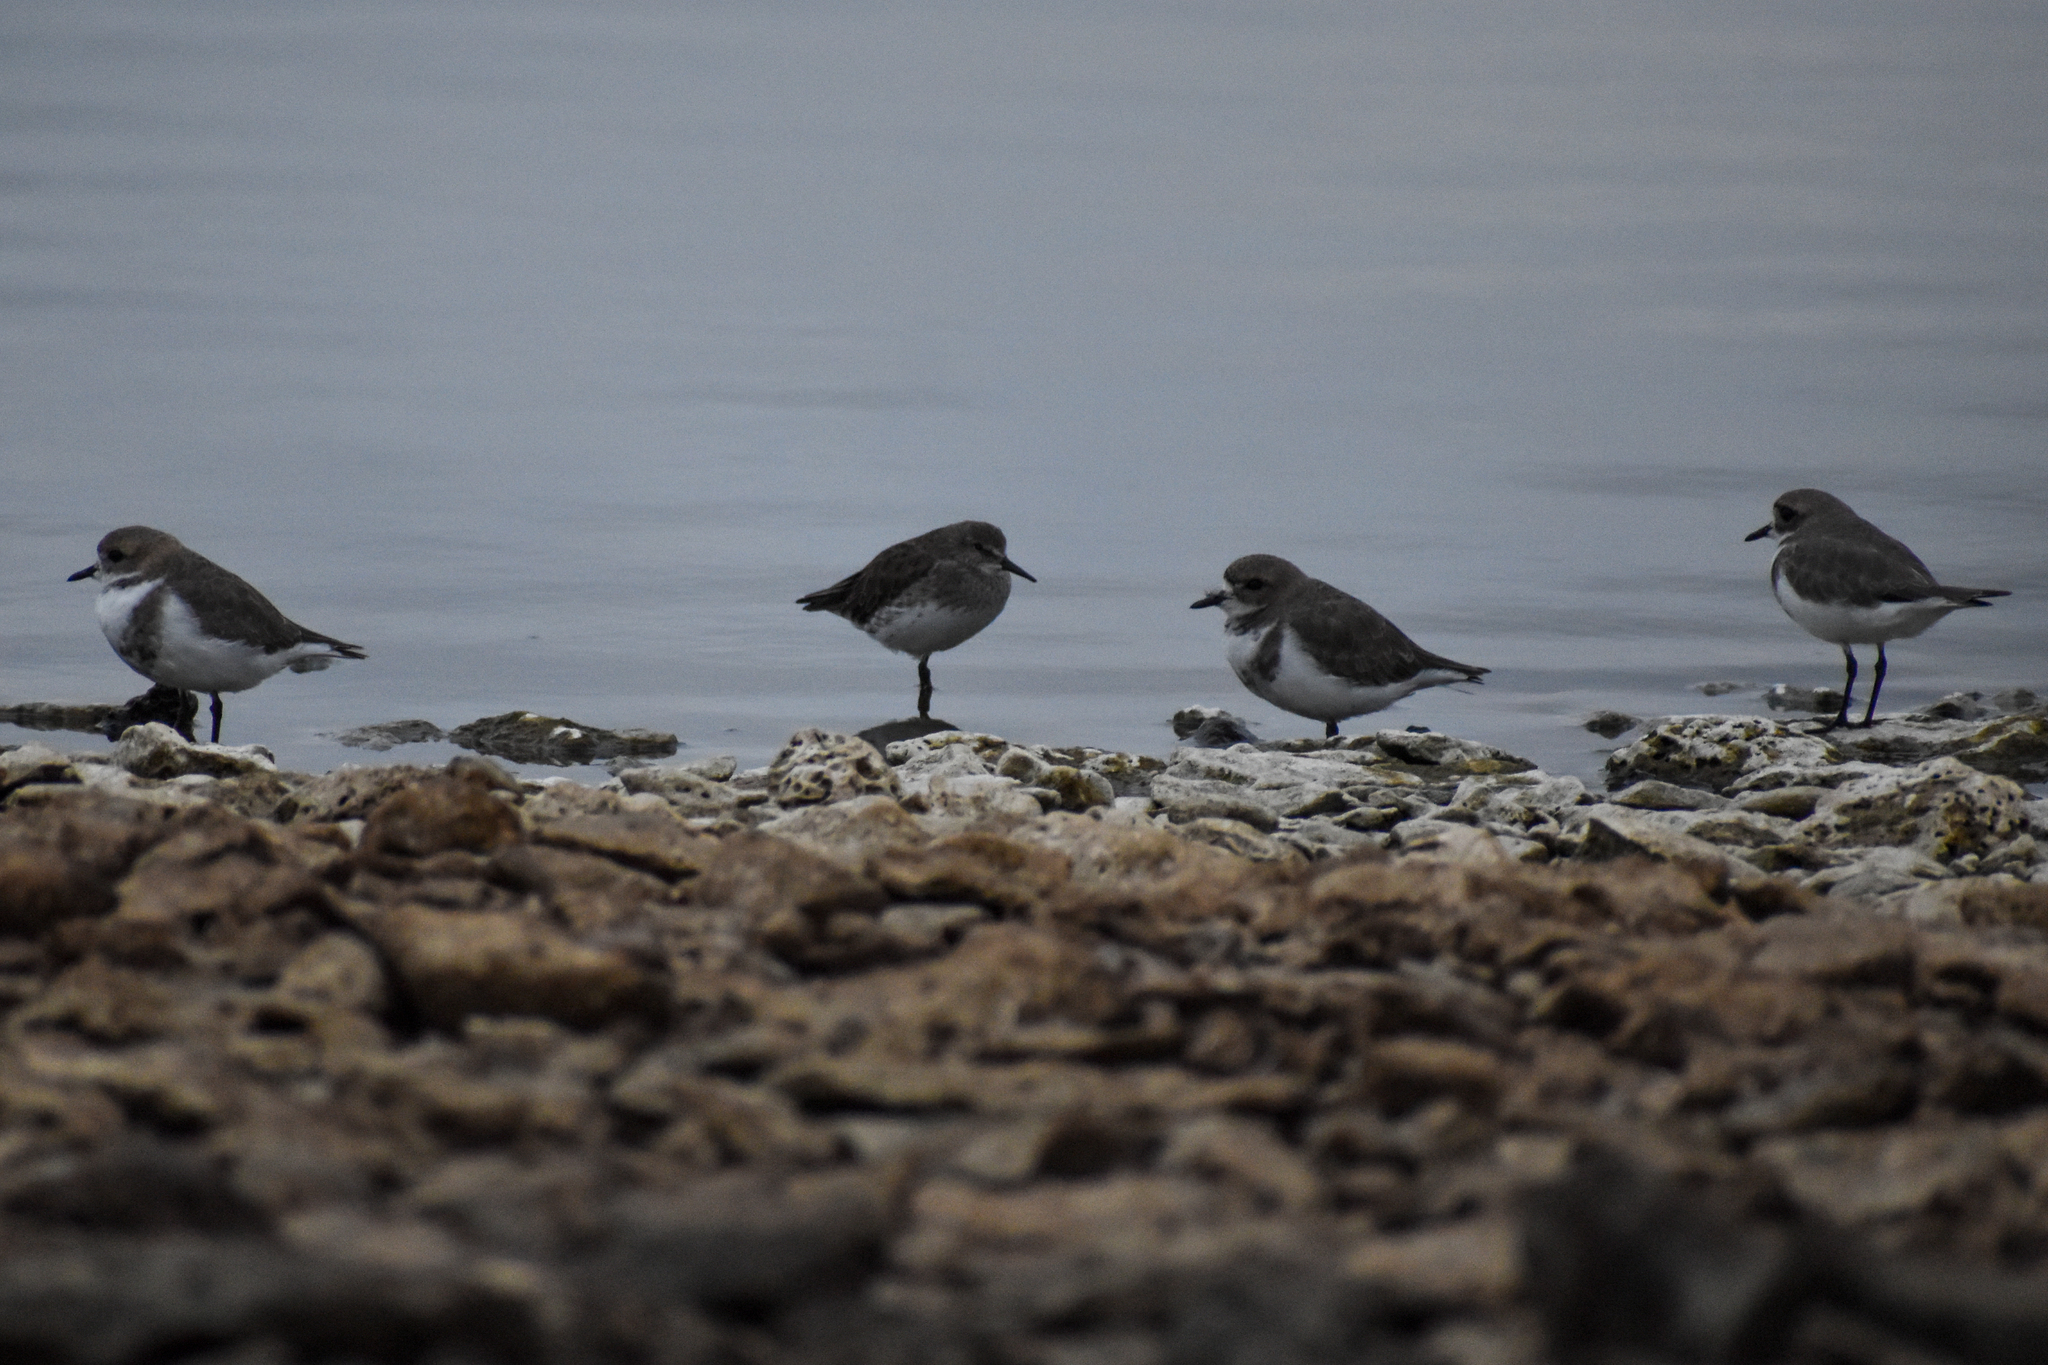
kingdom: Animalia
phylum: Chordata
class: Aves
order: Charadriiformes
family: Charadriidae
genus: Anarhynchus
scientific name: Anarhynchus
